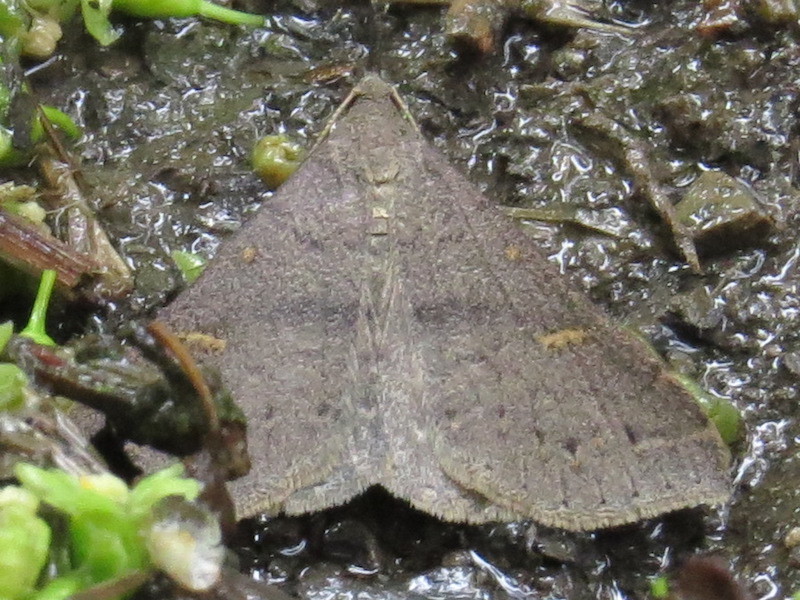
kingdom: Animalia
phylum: Arthropoda
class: Insecta
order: Lepidoptera
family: Erebidae
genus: Renia
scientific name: Renia adspergillus
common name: Speckled renia moth
